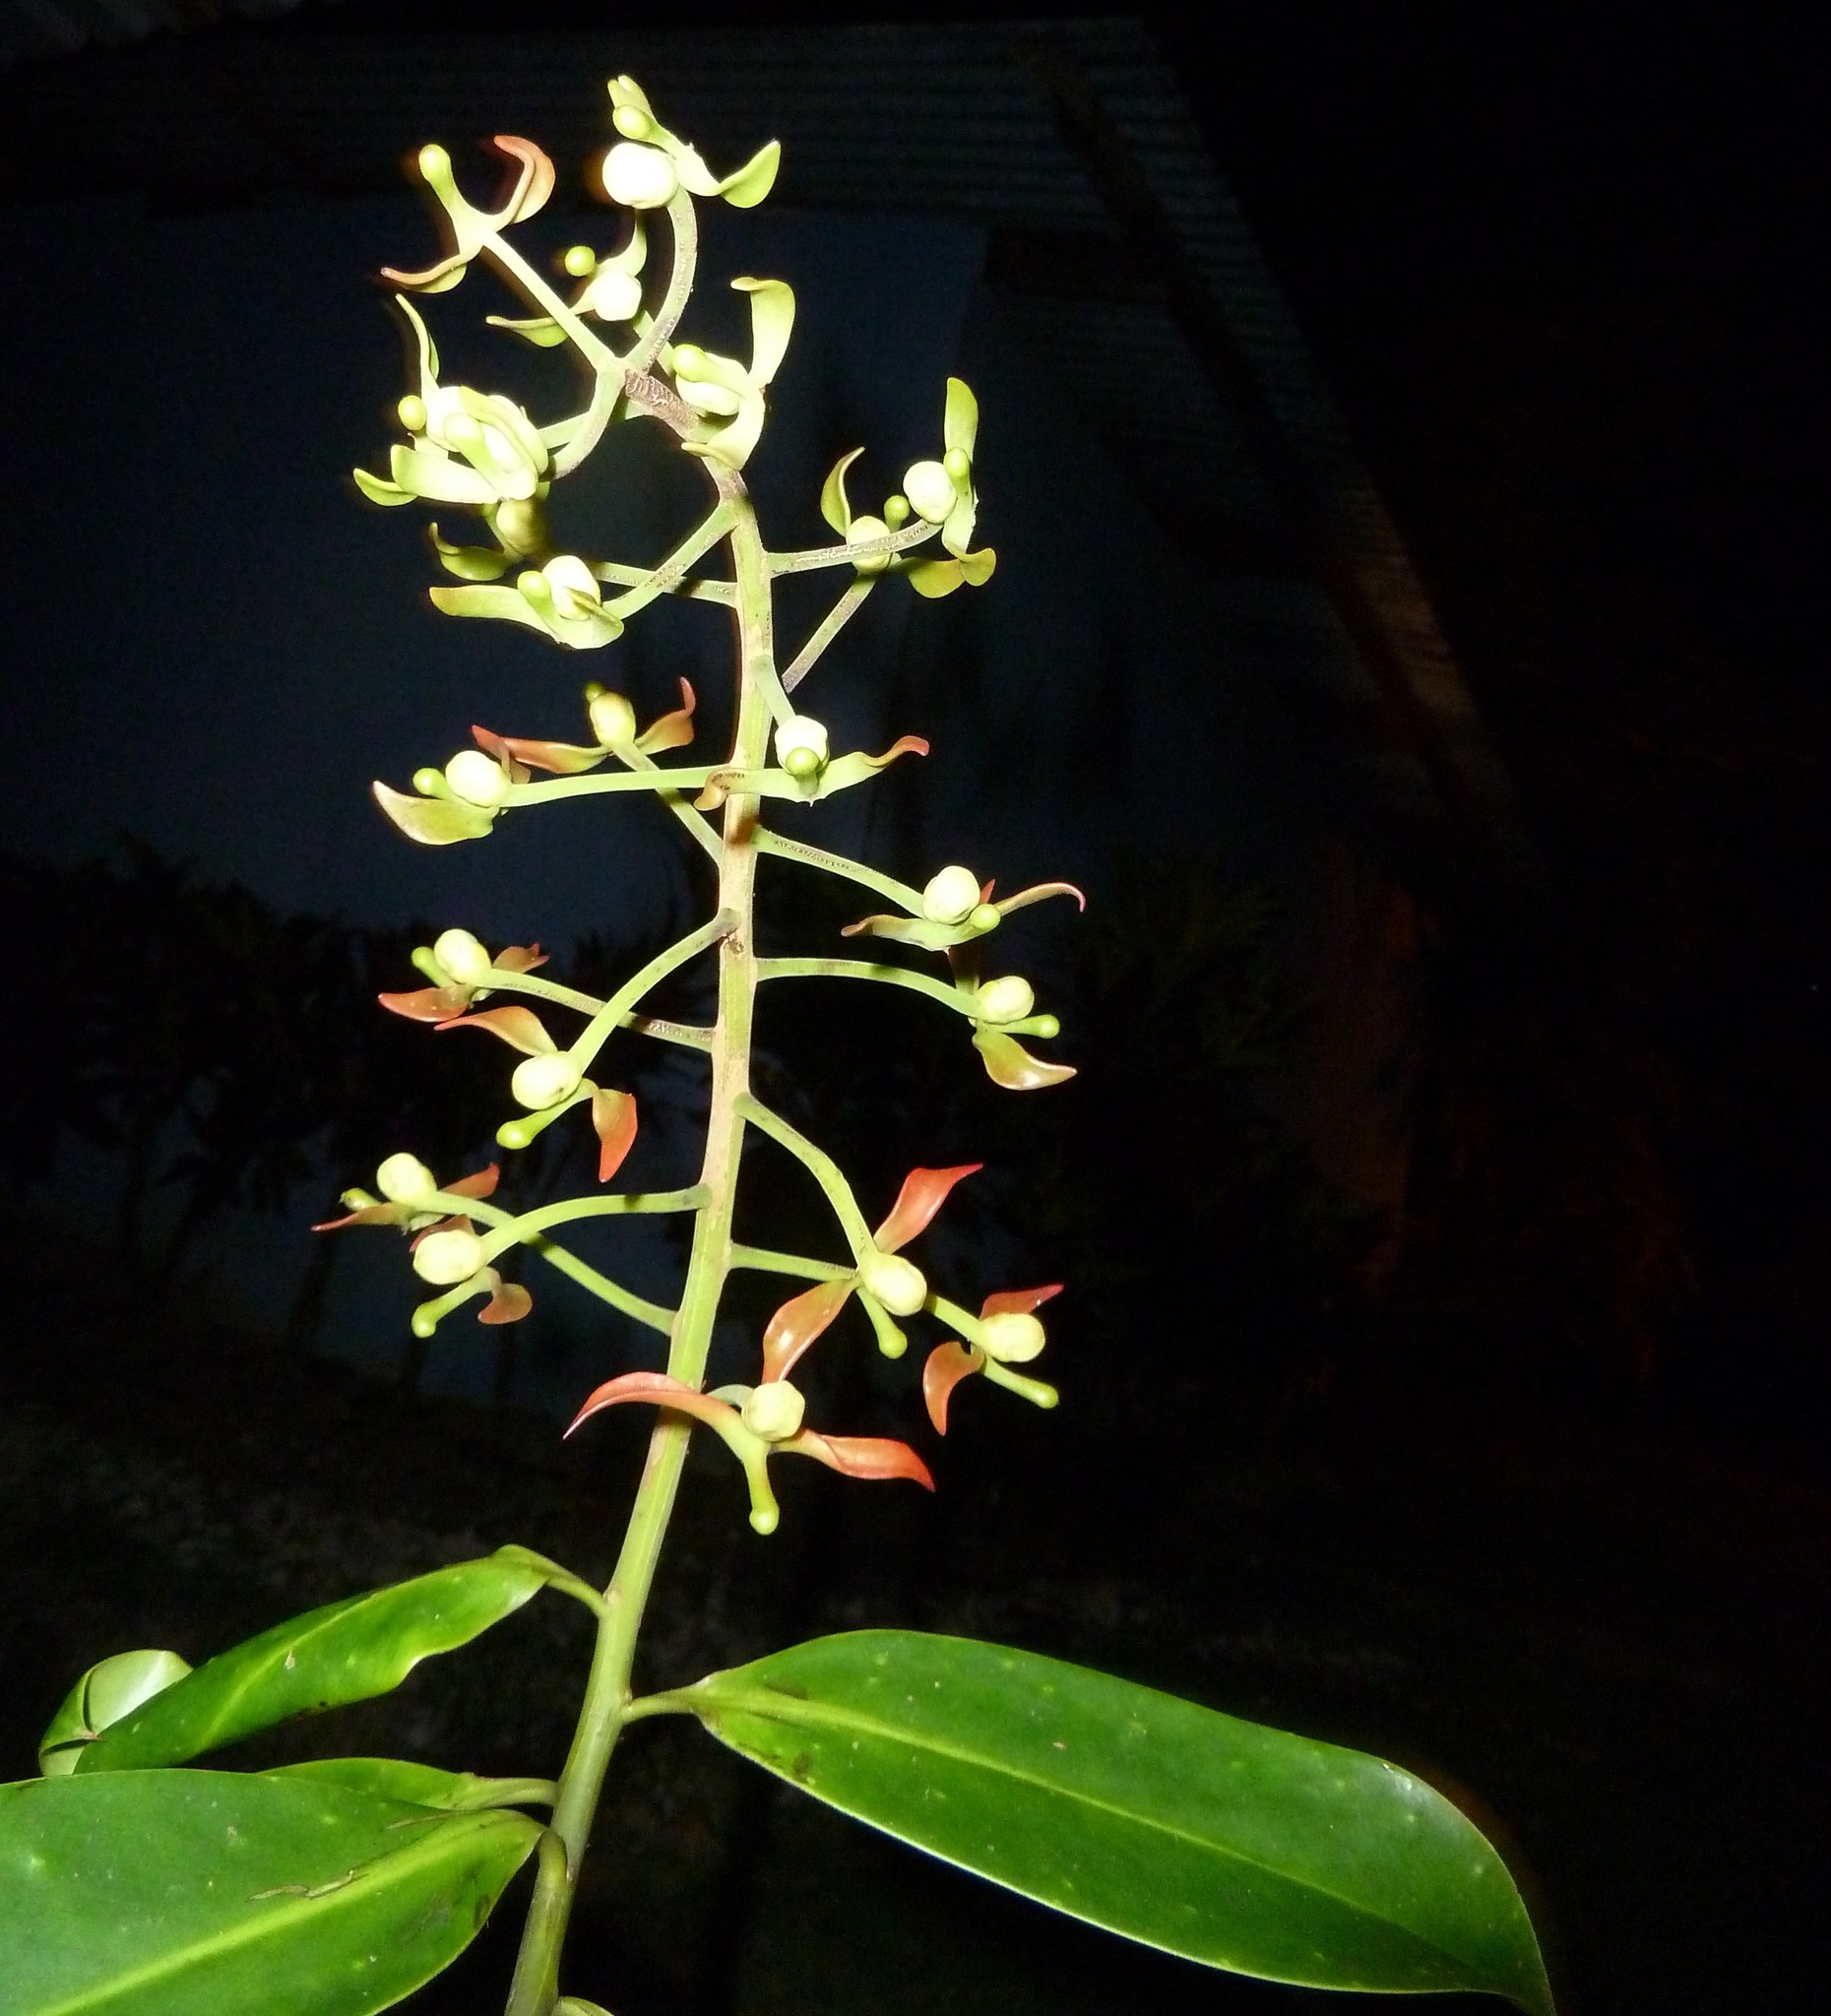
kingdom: Plantae
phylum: Tracheophyta
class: Magnoliopsida
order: Ericales
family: Marcgraviaceae
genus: Souroubea
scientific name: Souroubea sympetala
